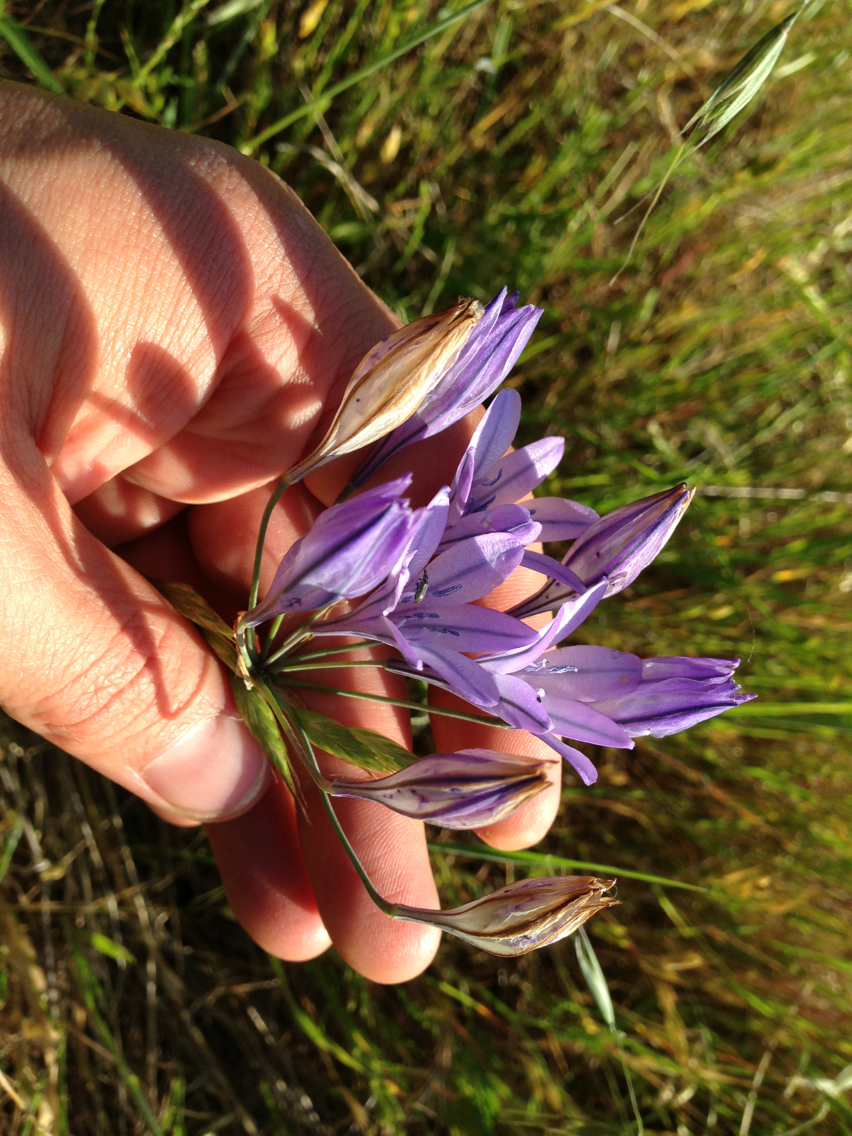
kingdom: Plantae
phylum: Tracheophyta
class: Liliopsida
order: Asparagales
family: Asparagaceae
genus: Triteleia
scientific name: Triteleia laxa
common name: Triplet-lily
